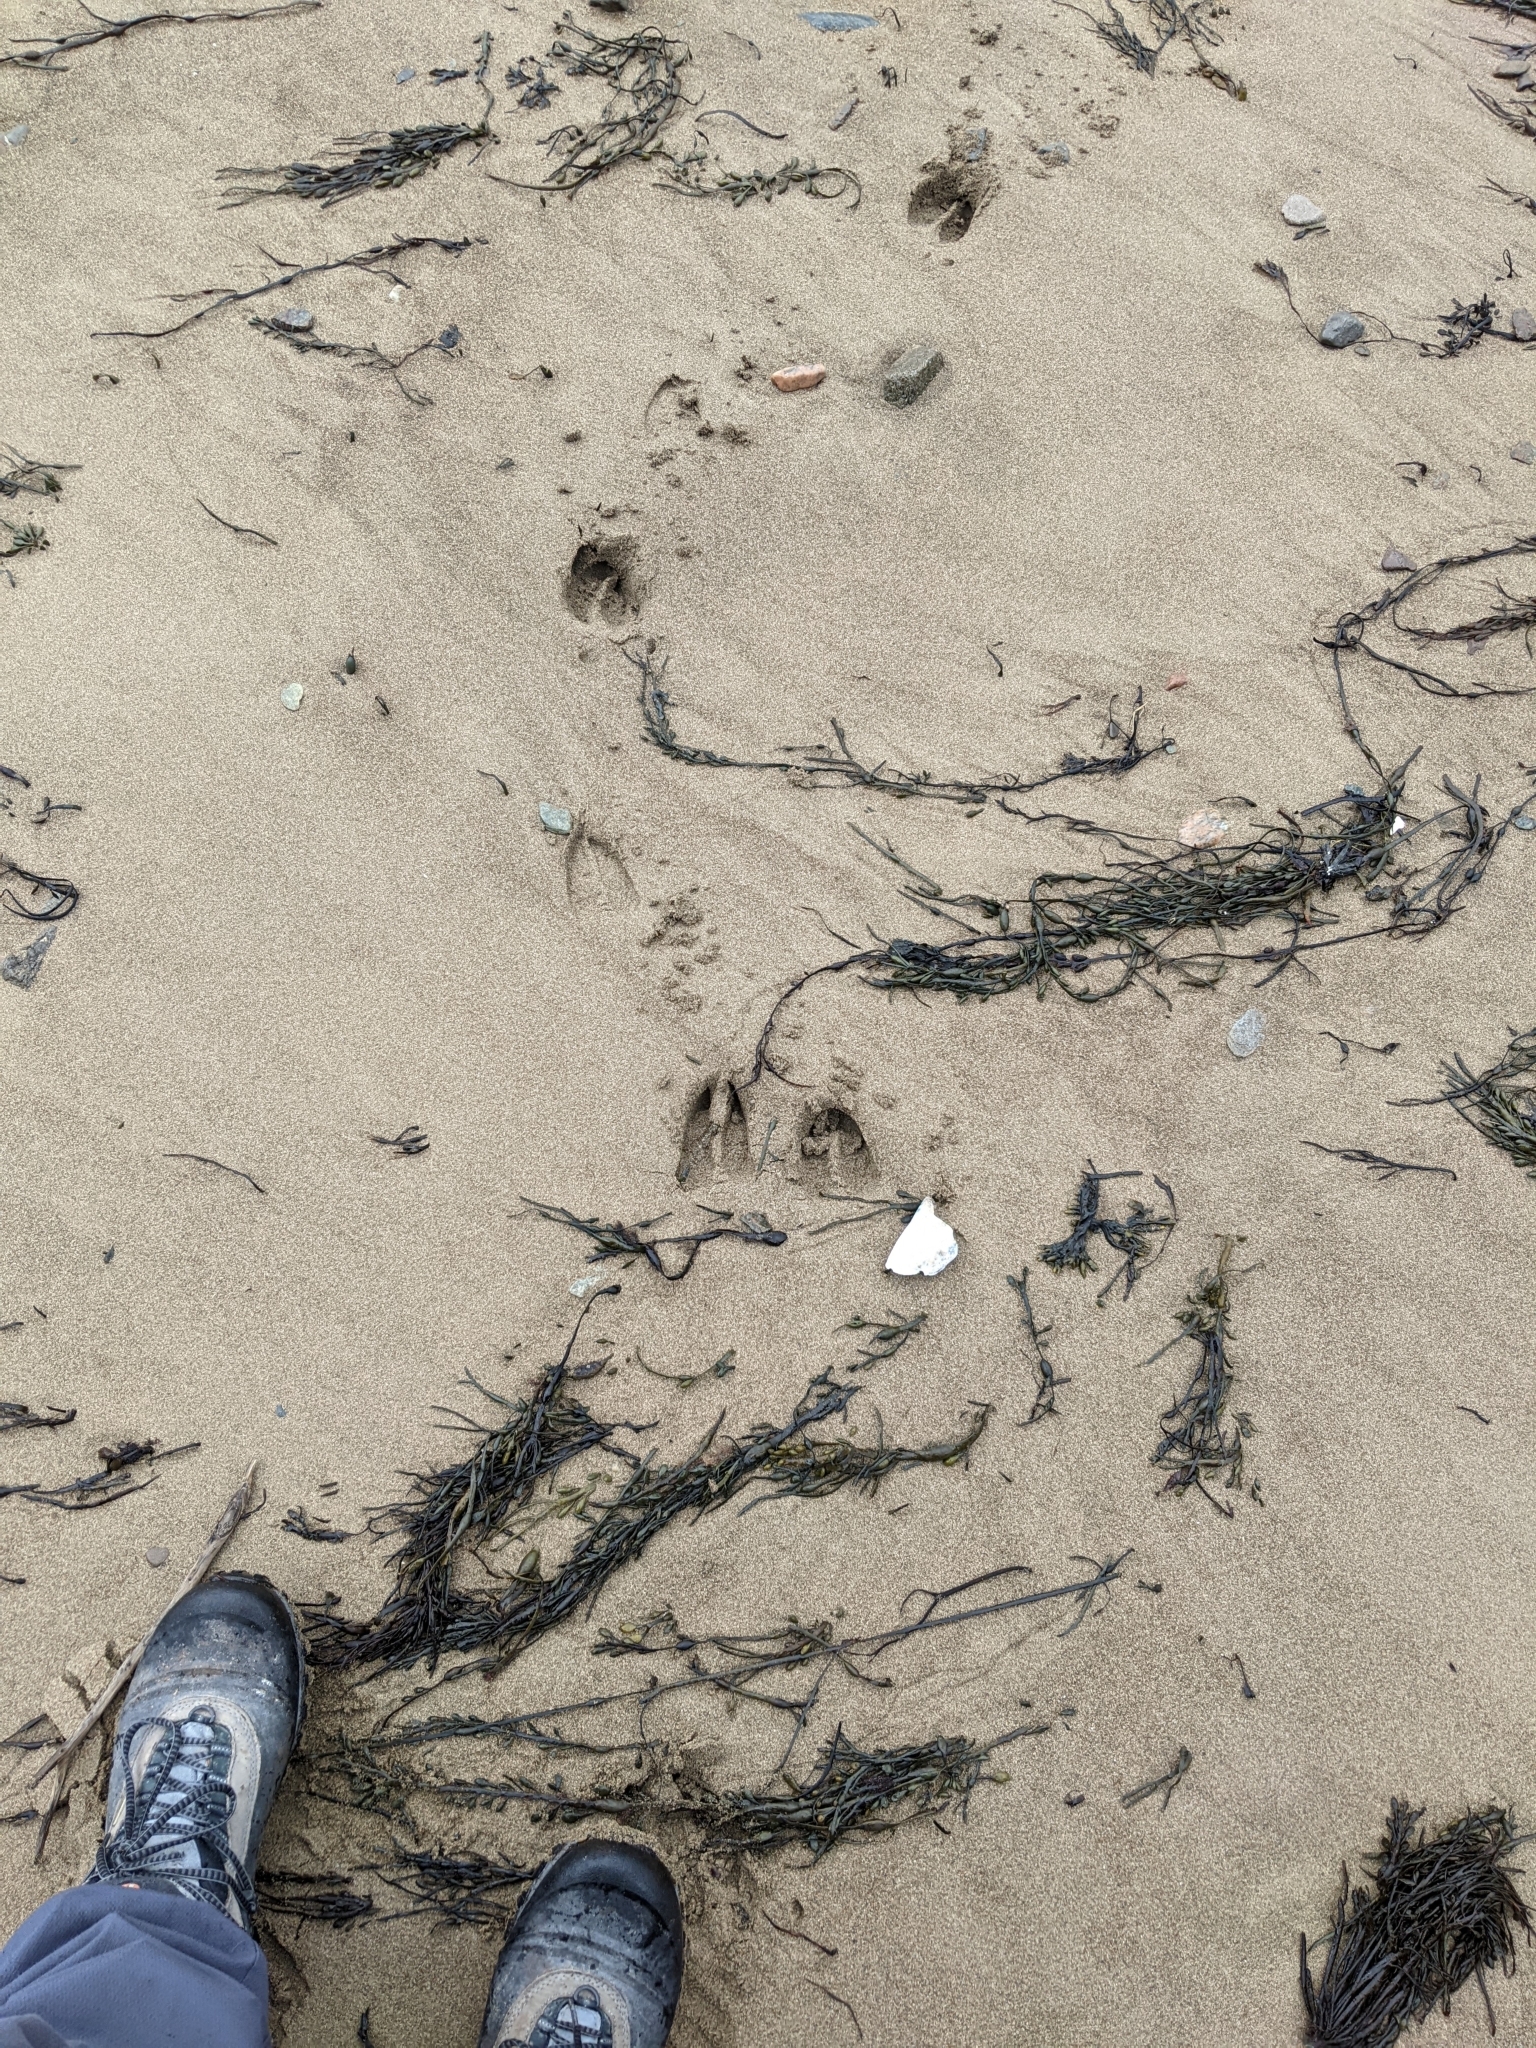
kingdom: Animalia
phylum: Chordata
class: Mammalia
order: Artiodactyla
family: Cervidae
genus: Odocoileus
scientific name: Odocoileus virginianus
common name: White-tailed deer
